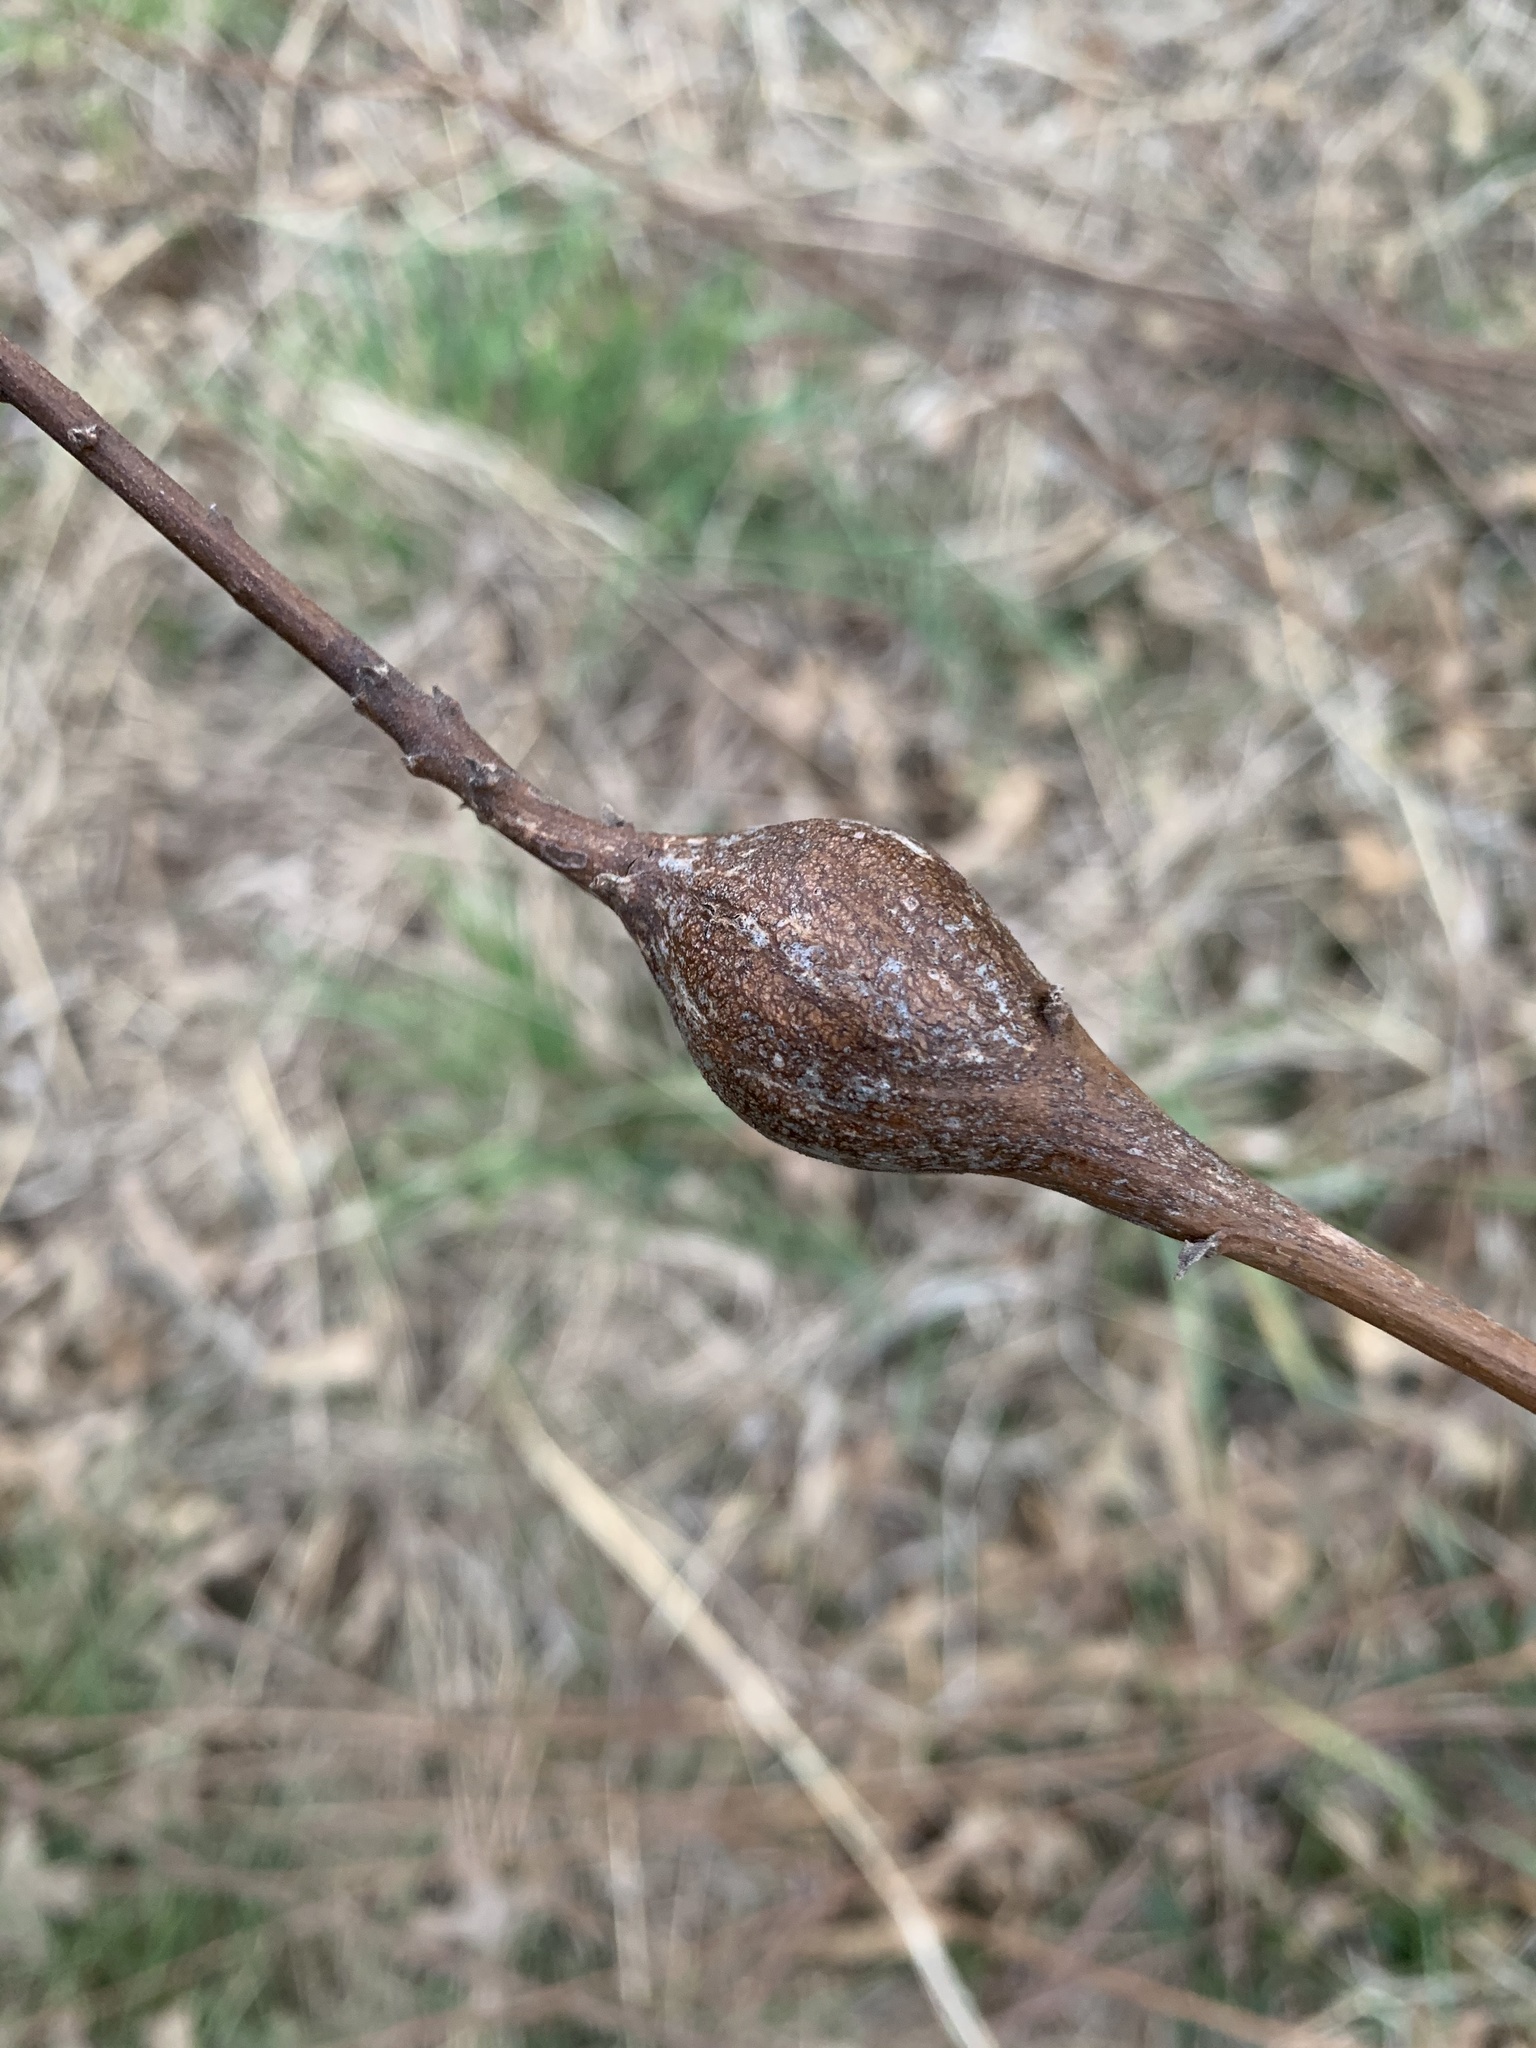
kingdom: Animalia
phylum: Arthropoda
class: Insecta
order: Diptera
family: Tephritidae
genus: Eurosta
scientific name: Eurosta solidaginis
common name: Goldenrod gall fly
